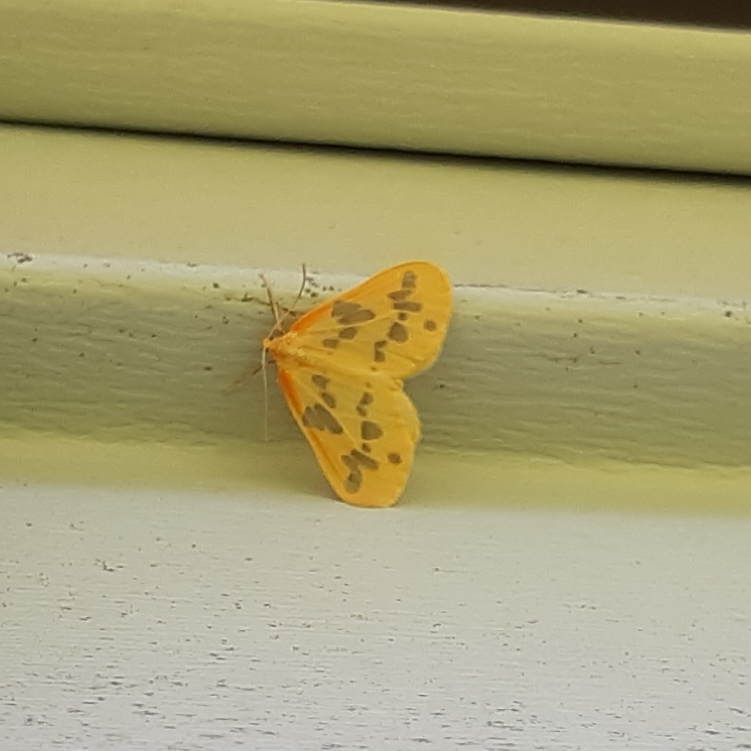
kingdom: Animalia
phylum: Arthropoda
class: Insecta
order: Lepidoptera
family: Geometridae
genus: Eubaphe
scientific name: Eubaphe mendica
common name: Beggar
